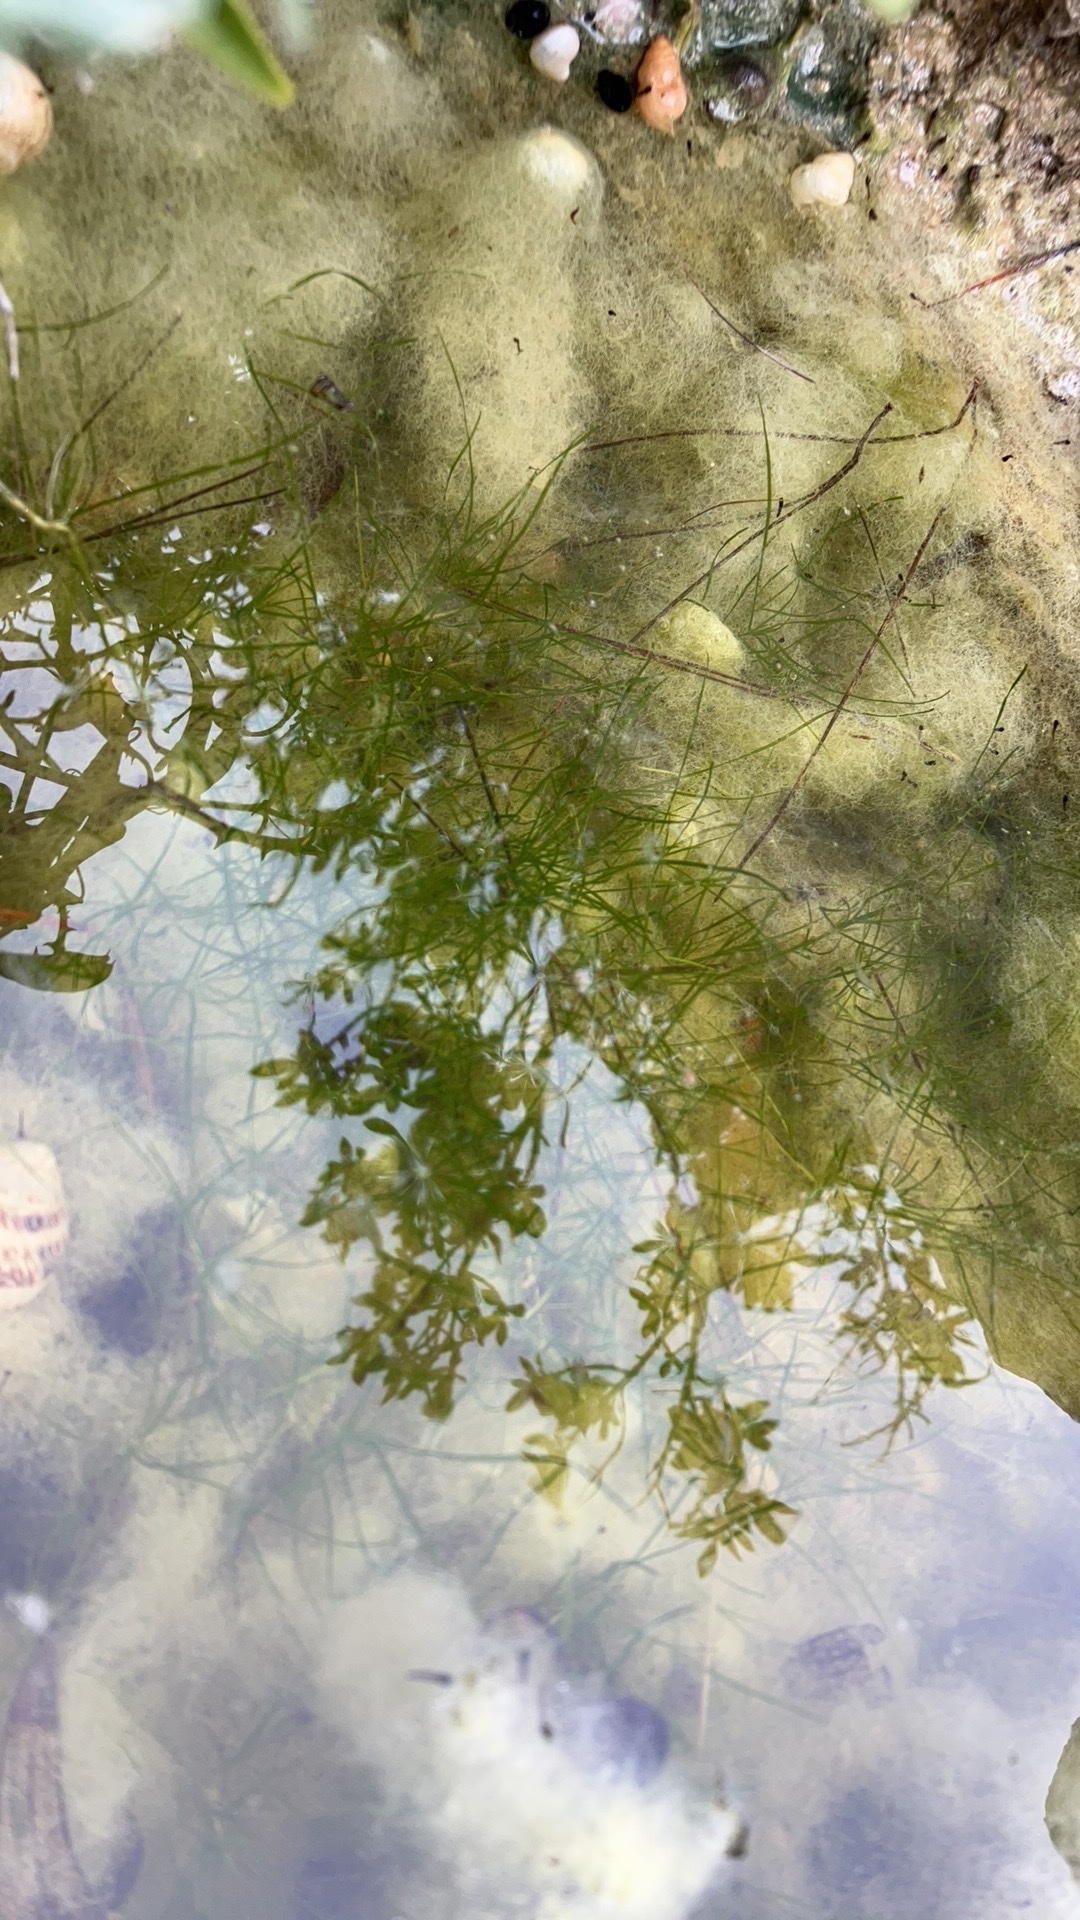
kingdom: Plantae
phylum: Tracheophyta
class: Liliopsida
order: Alismatales
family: Potamogetonaceae
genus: Zannichellia
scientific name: Zannichellia palustris
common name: Horned pondweed
